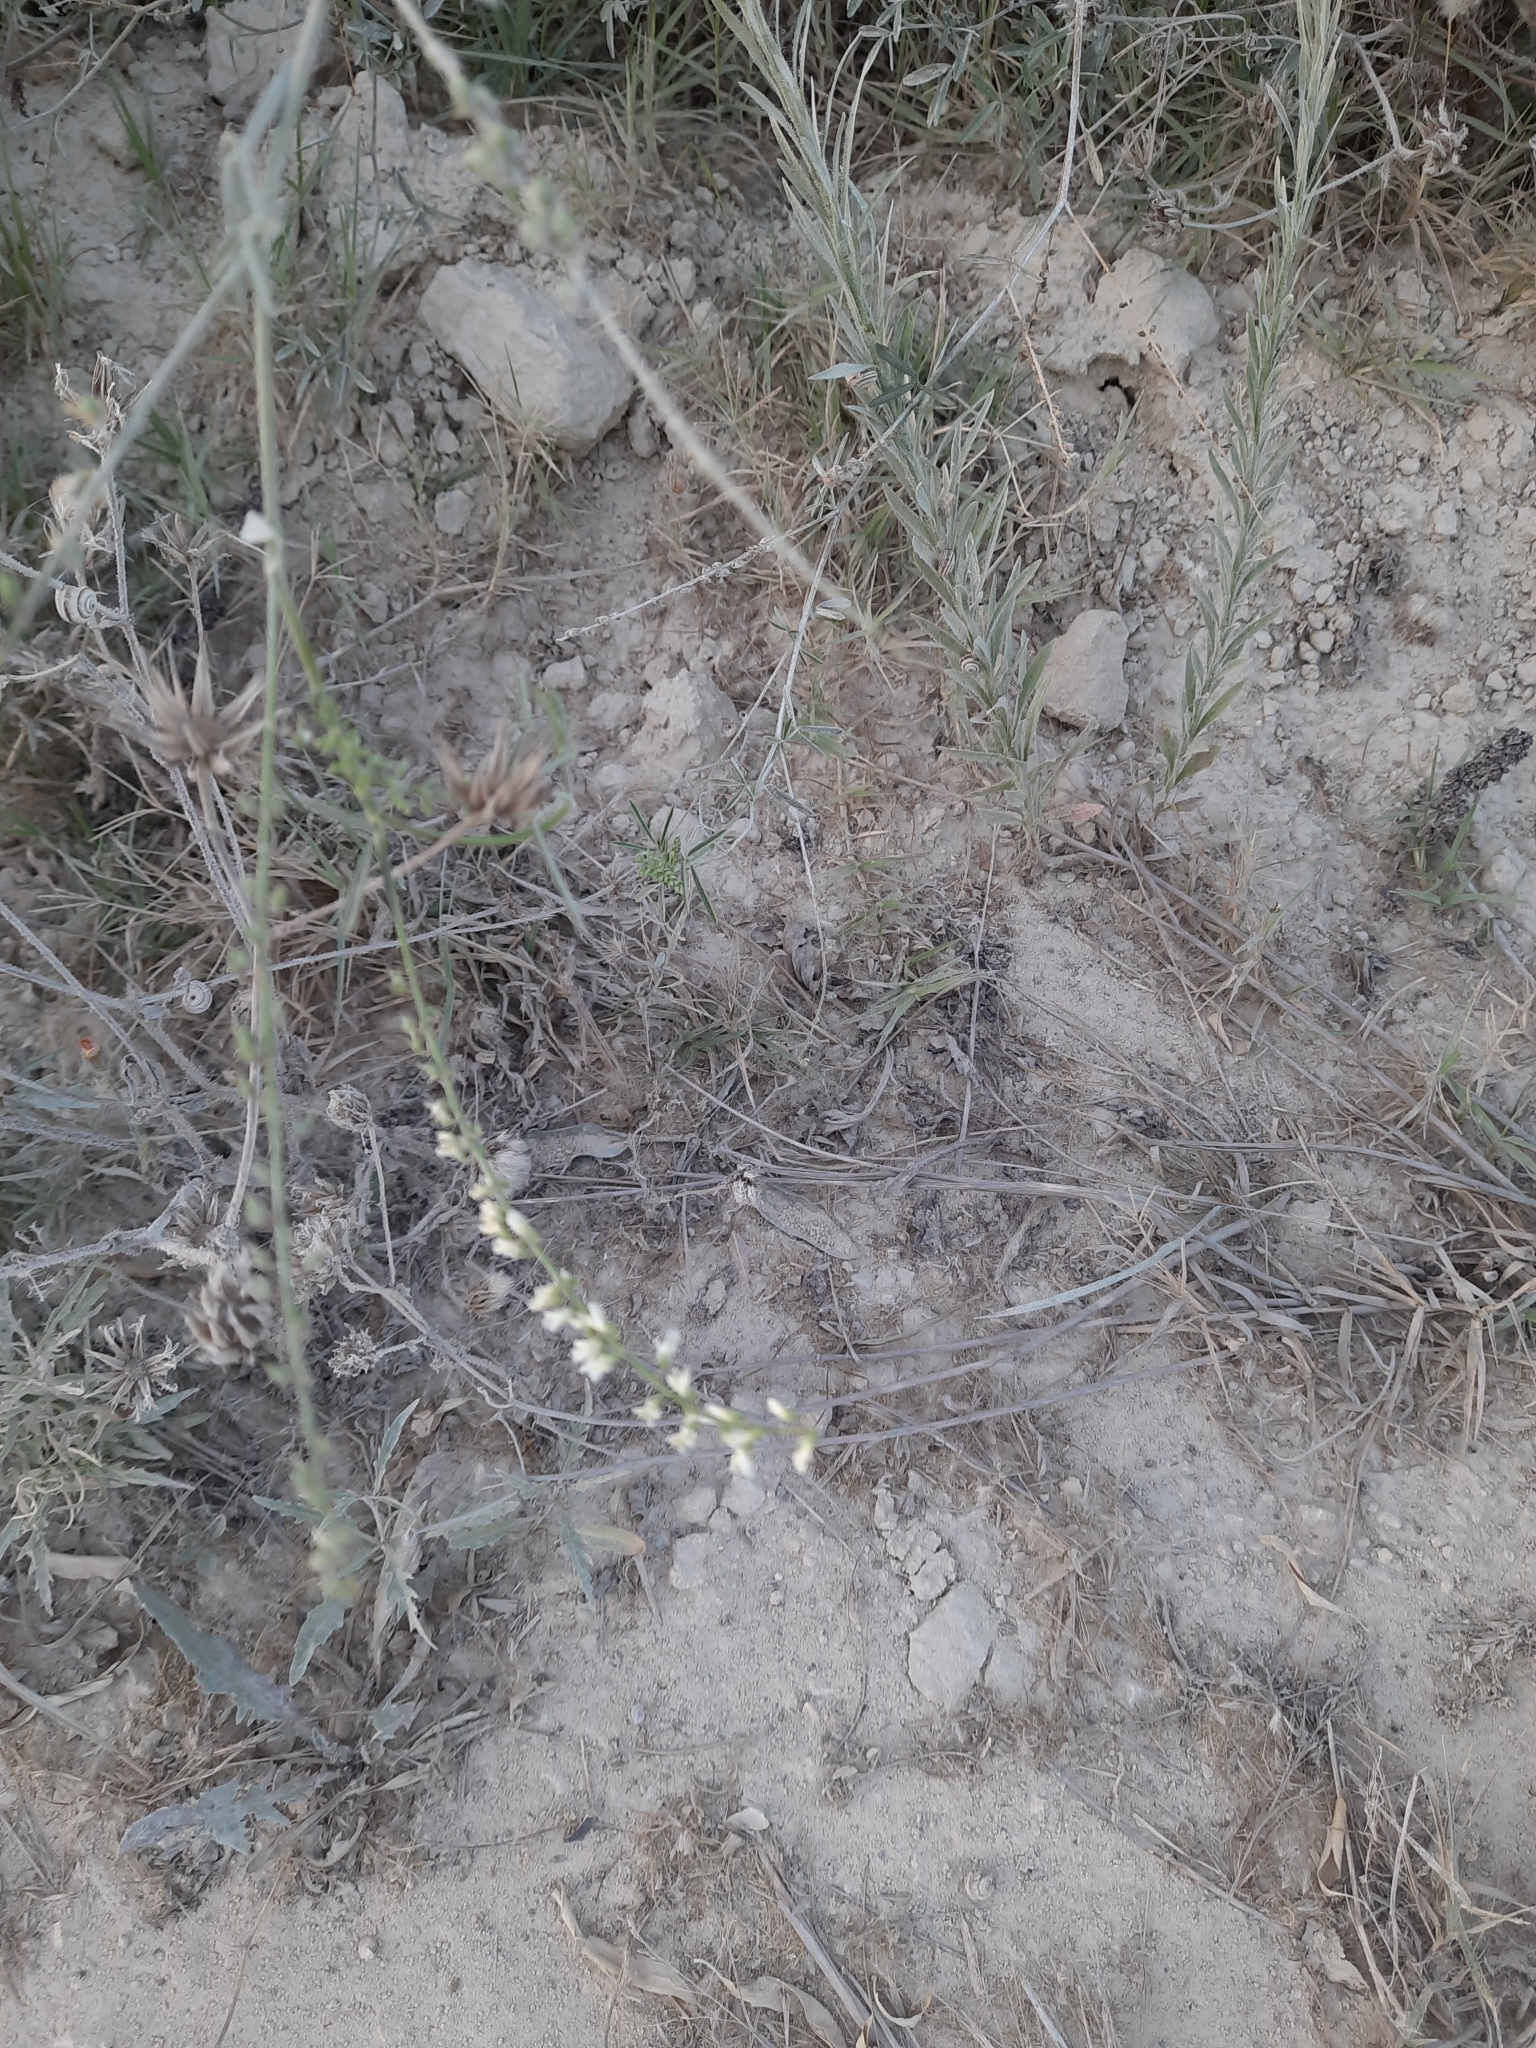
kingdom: Plantae
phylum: Tracheophyta
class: Magnoliopsida
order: Fabales
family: Fabaceae
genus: Melilotus
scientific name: Melilotus albus
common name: White melilot
